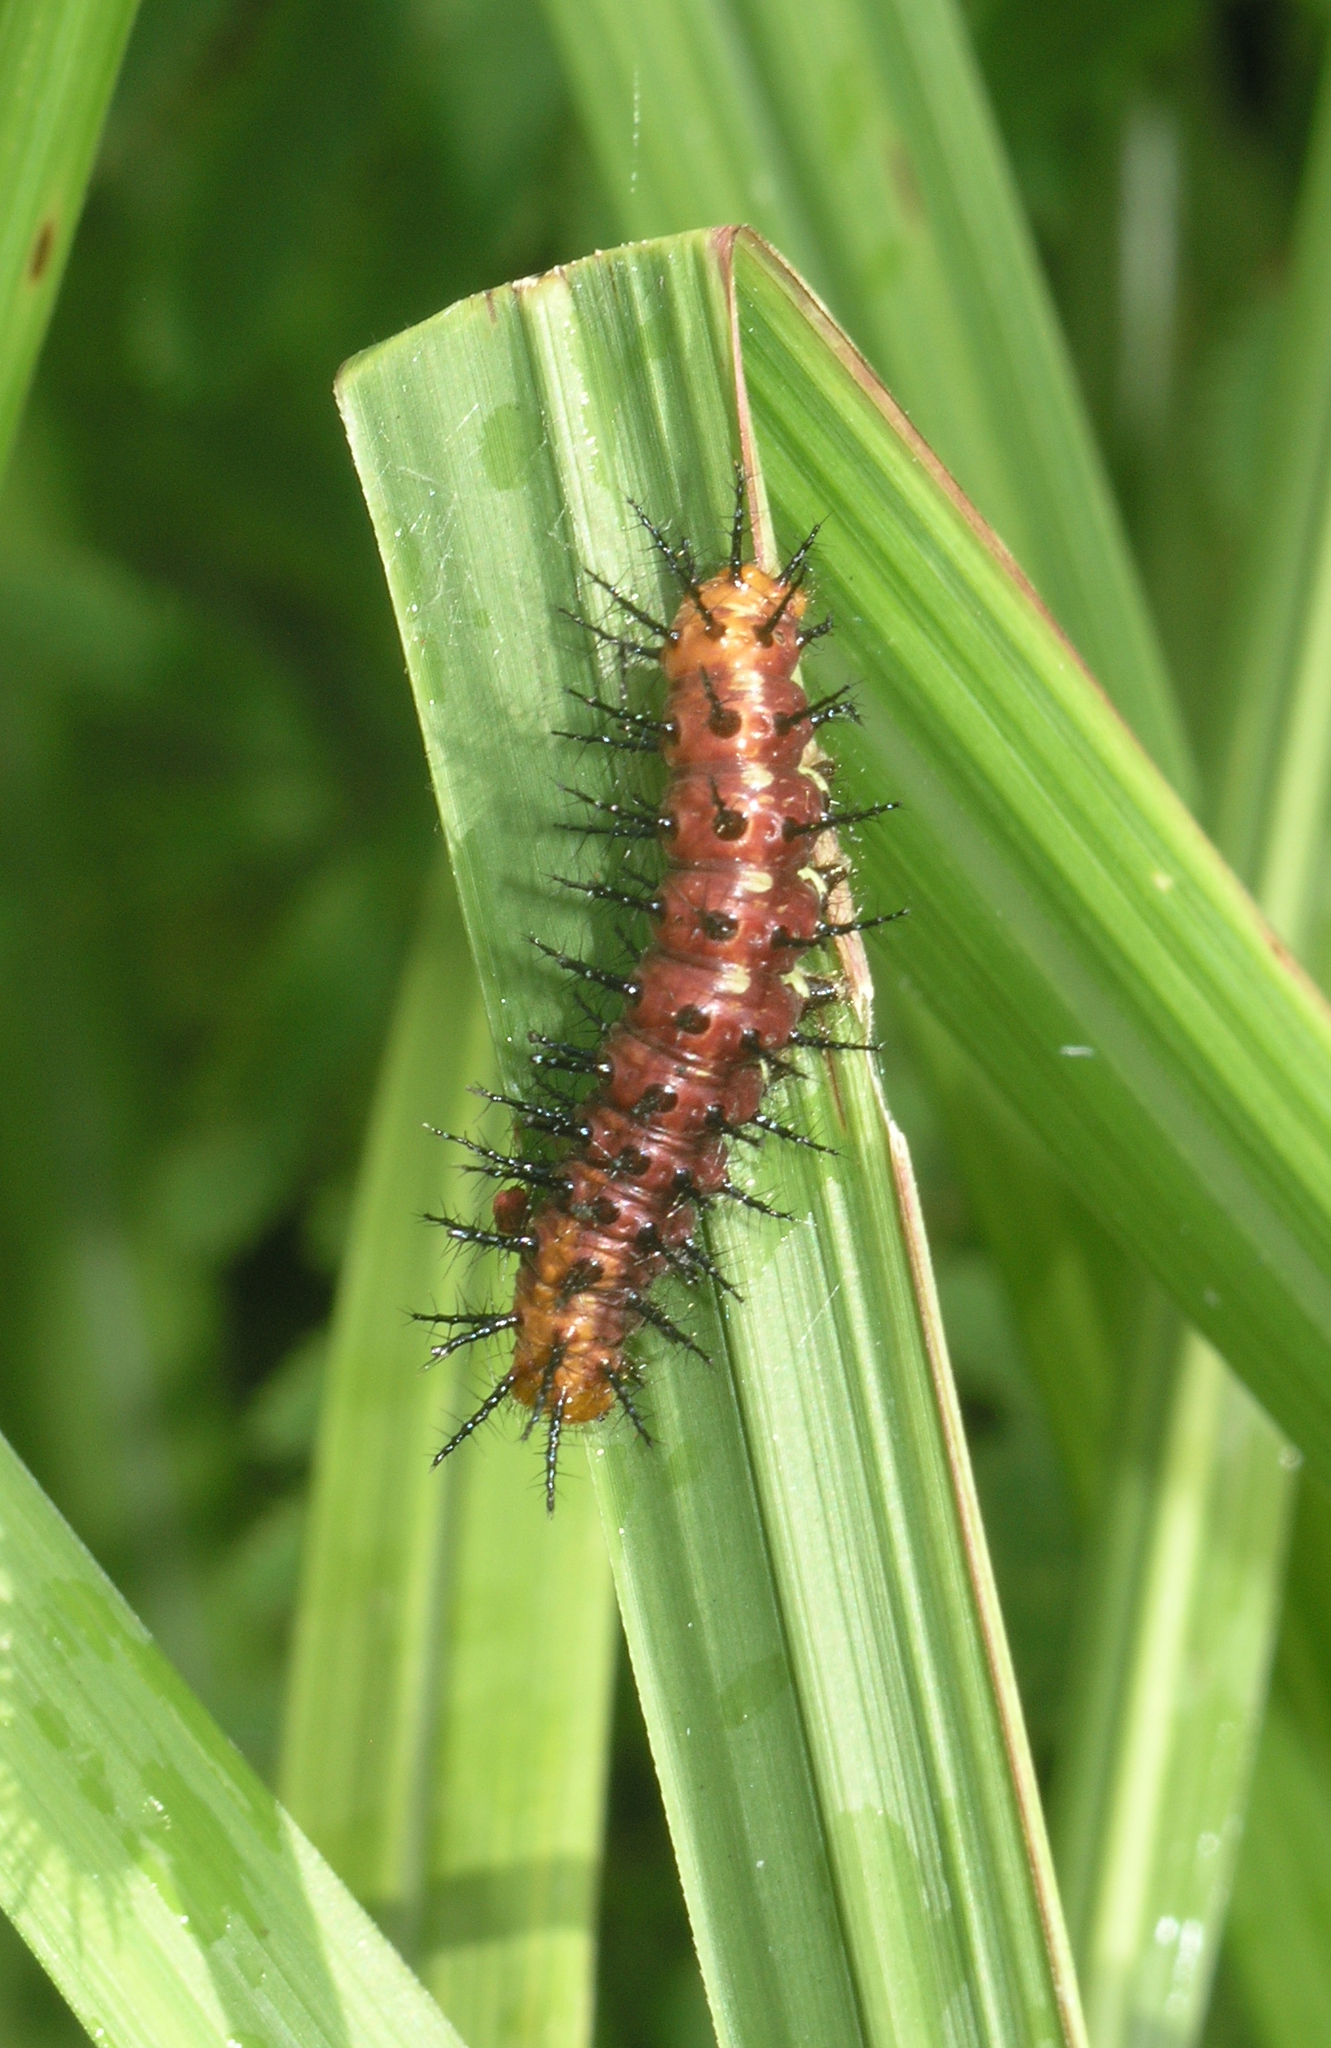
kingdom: Animalia
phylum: Arthropoda
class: Insecta
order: Lepidoptera
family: Nymphalidae
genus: Acraea
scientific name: Acraea terpsicore
